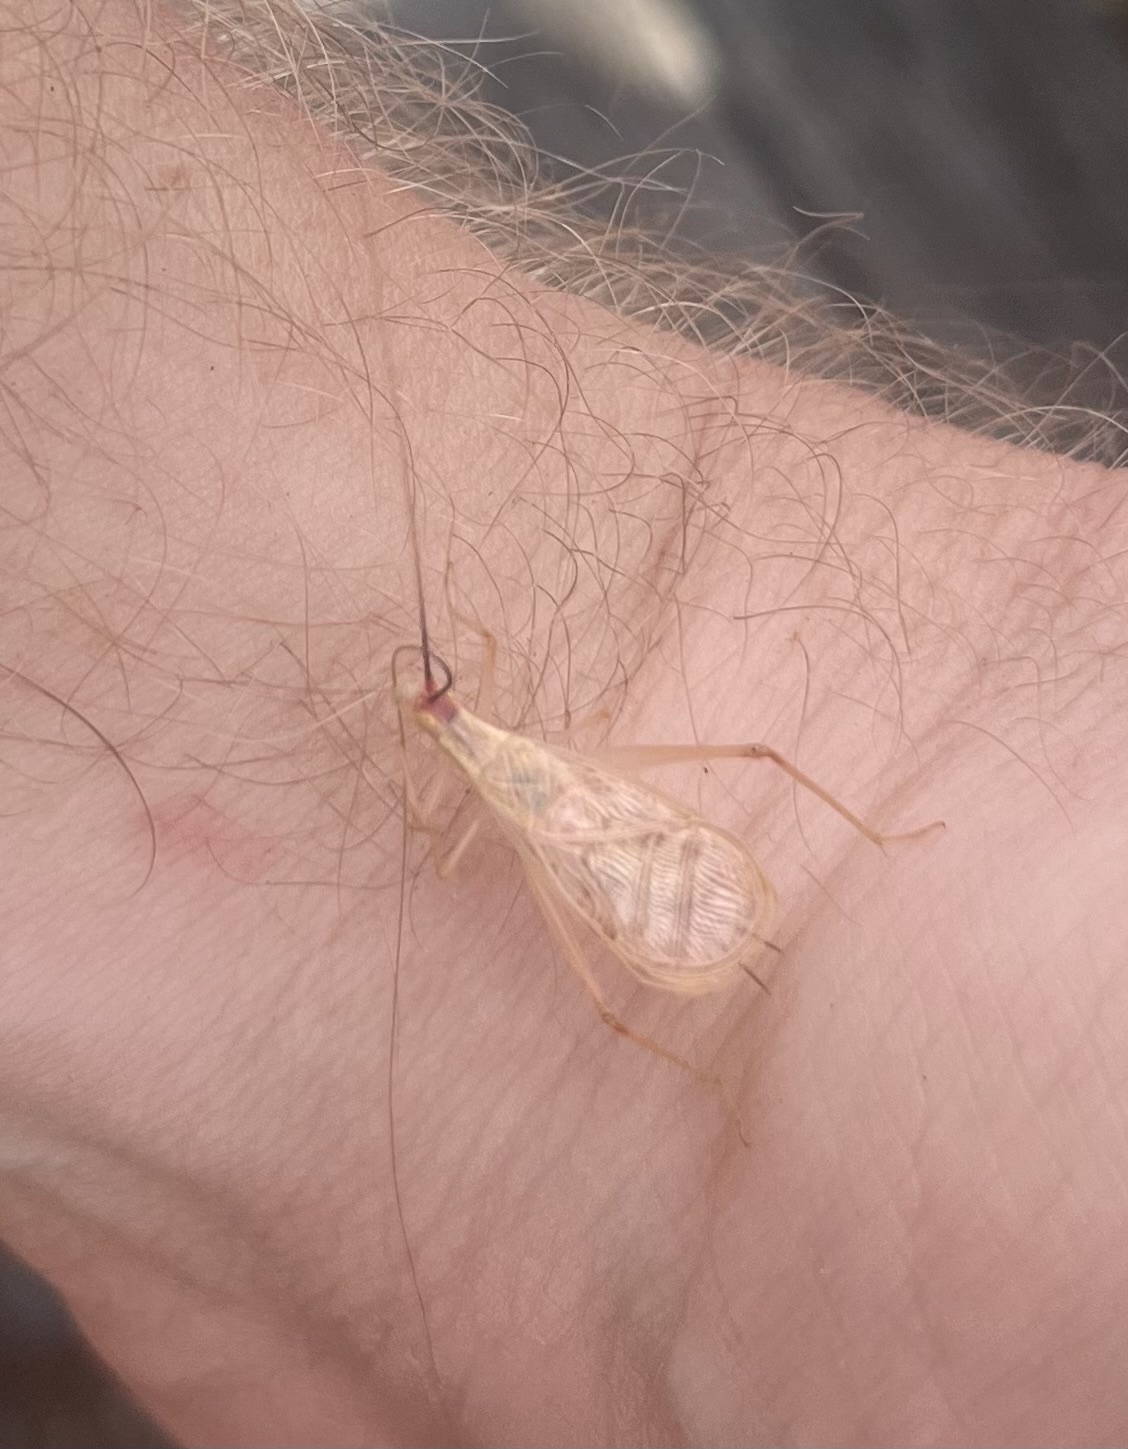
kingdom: Animalia
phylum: Arthropoda
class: Insecta
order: Orthoptera
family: Gryllidae
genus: Oecanthus
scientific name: Oecanthus californicus
